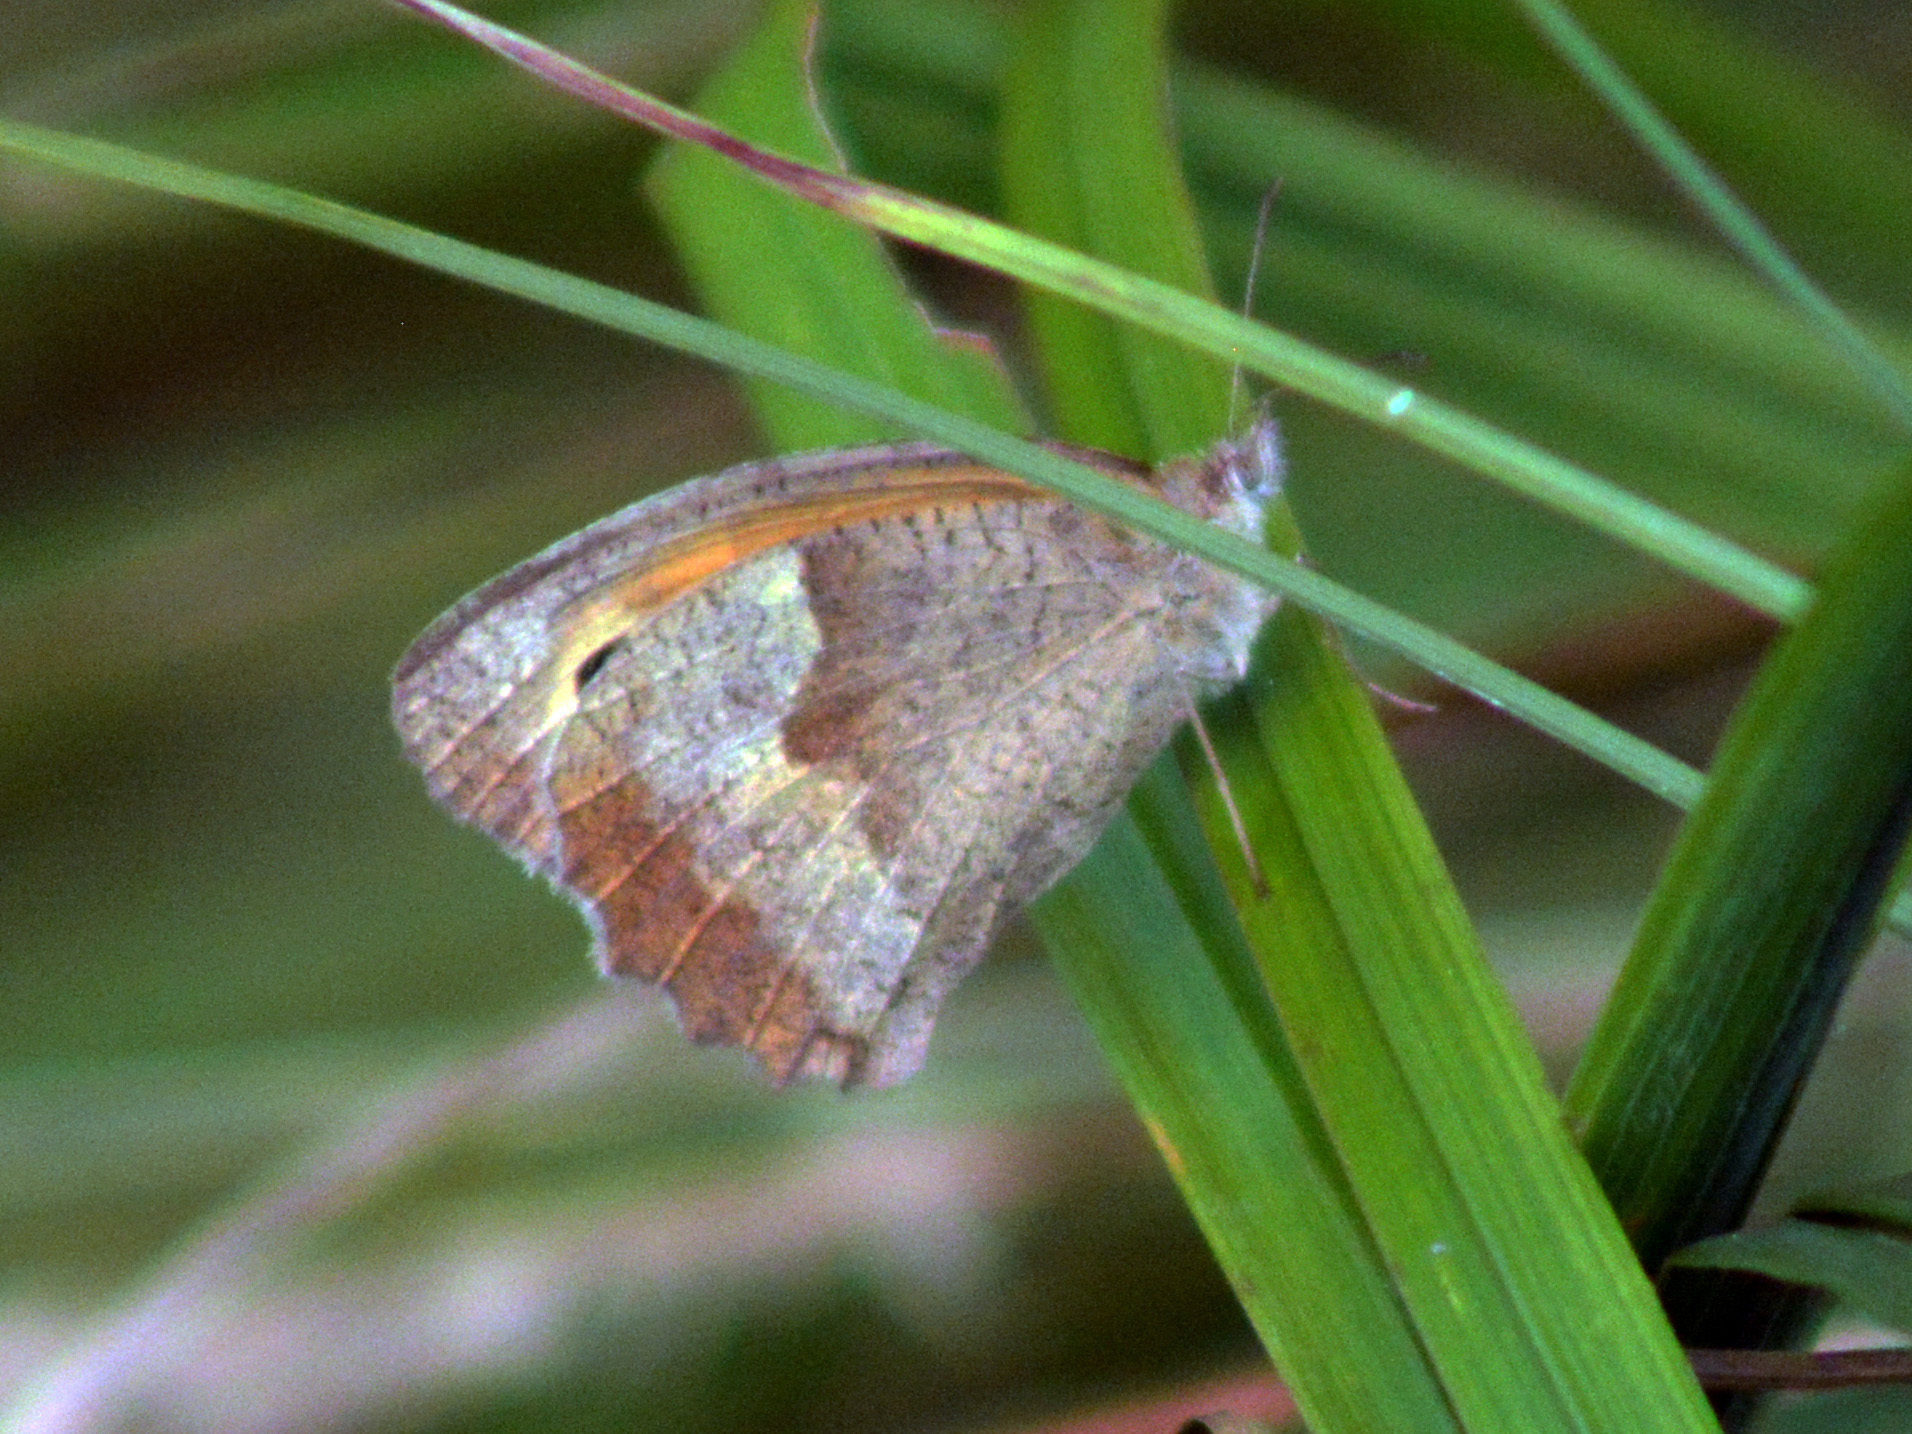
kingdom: Animalia
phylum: Arthropoda
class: Insecta
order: Lepidoptera
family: Nymphalidae
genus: Maniola
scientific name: Maniola jurtina
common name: Meadow brown
